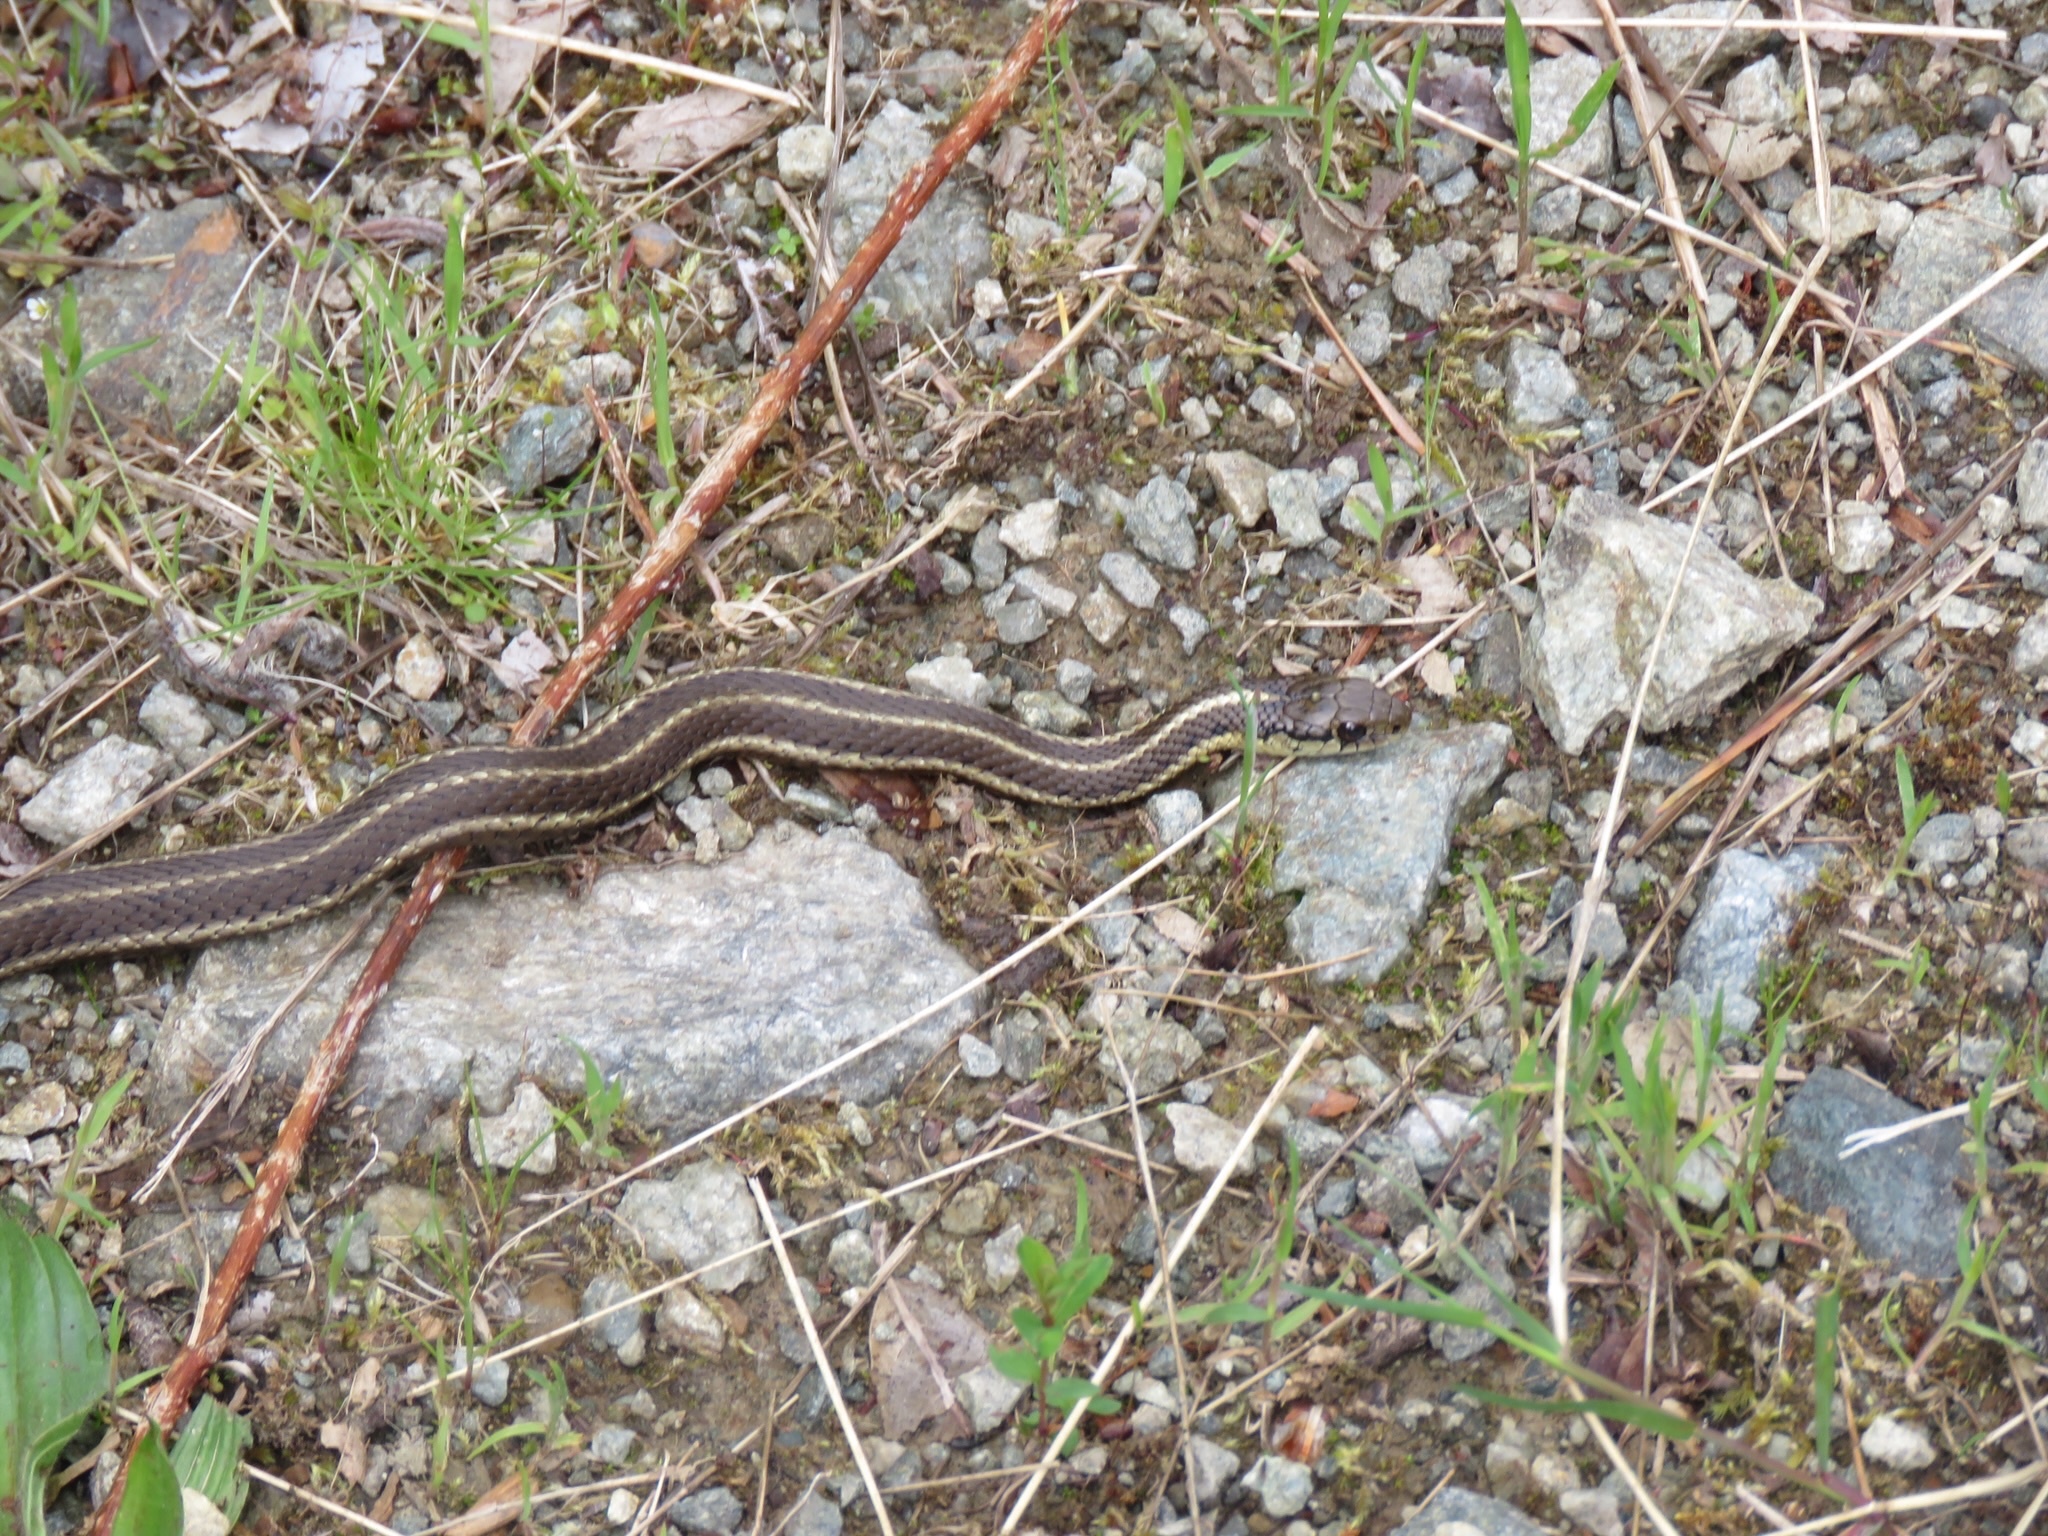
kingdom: Animalia
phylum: Chordata
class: Squamata
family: Colubridae
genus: Thamnophis
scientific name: Thamnophis ordinoides
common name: Northwestern garter snake
